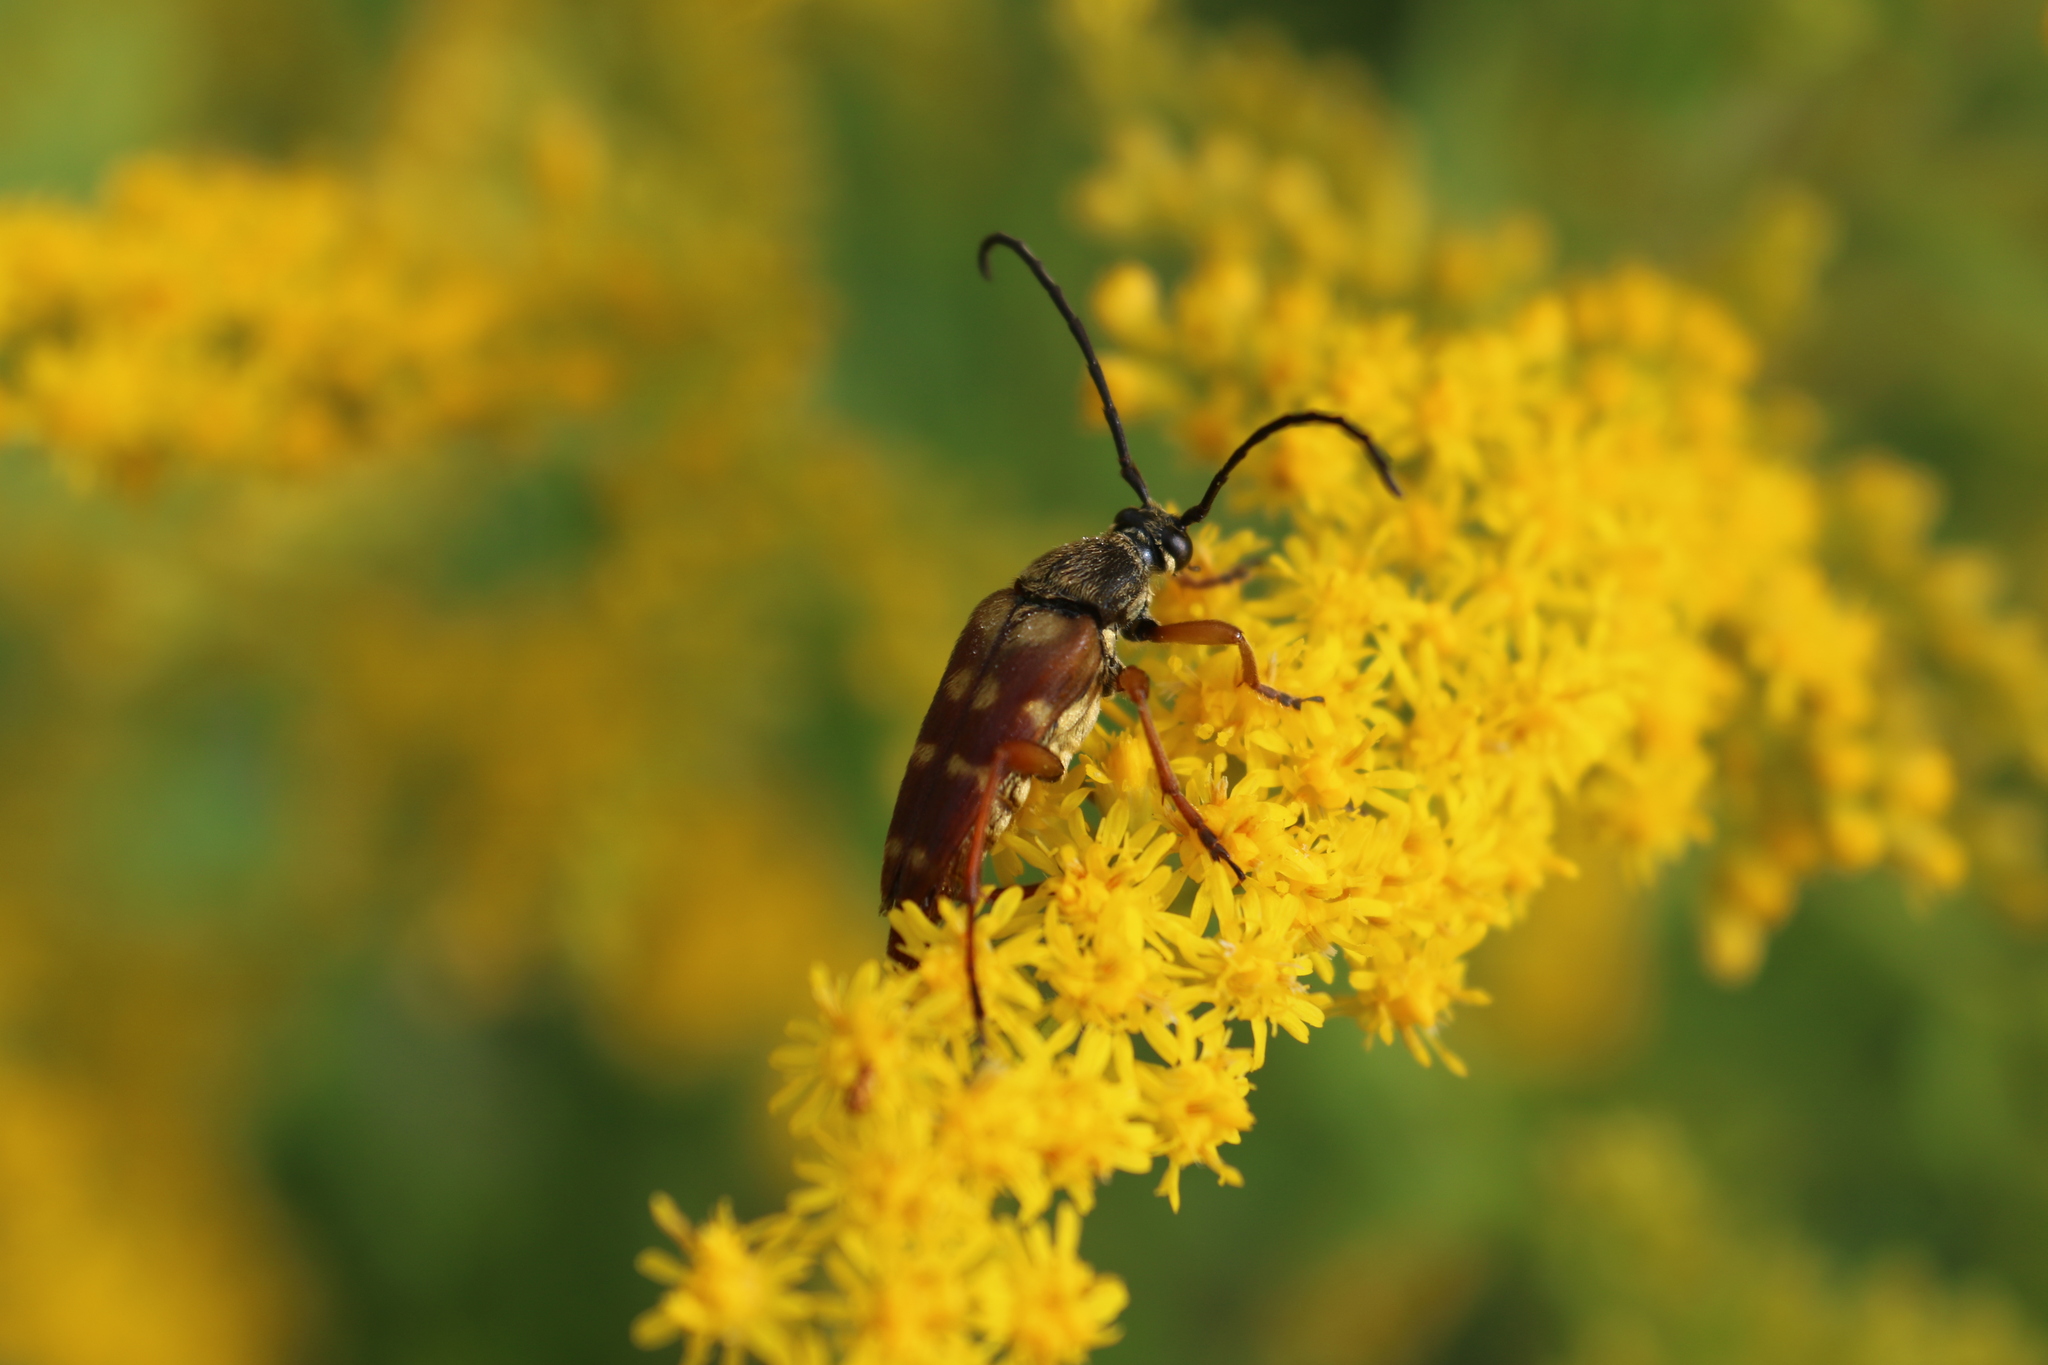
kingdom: Animalia
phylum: Arthropoda
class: Insecta
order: Coleoptera
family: Cerambycidae
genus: Typocerus
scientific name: Typocerus velutinus
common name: Banded longhorn beetle
